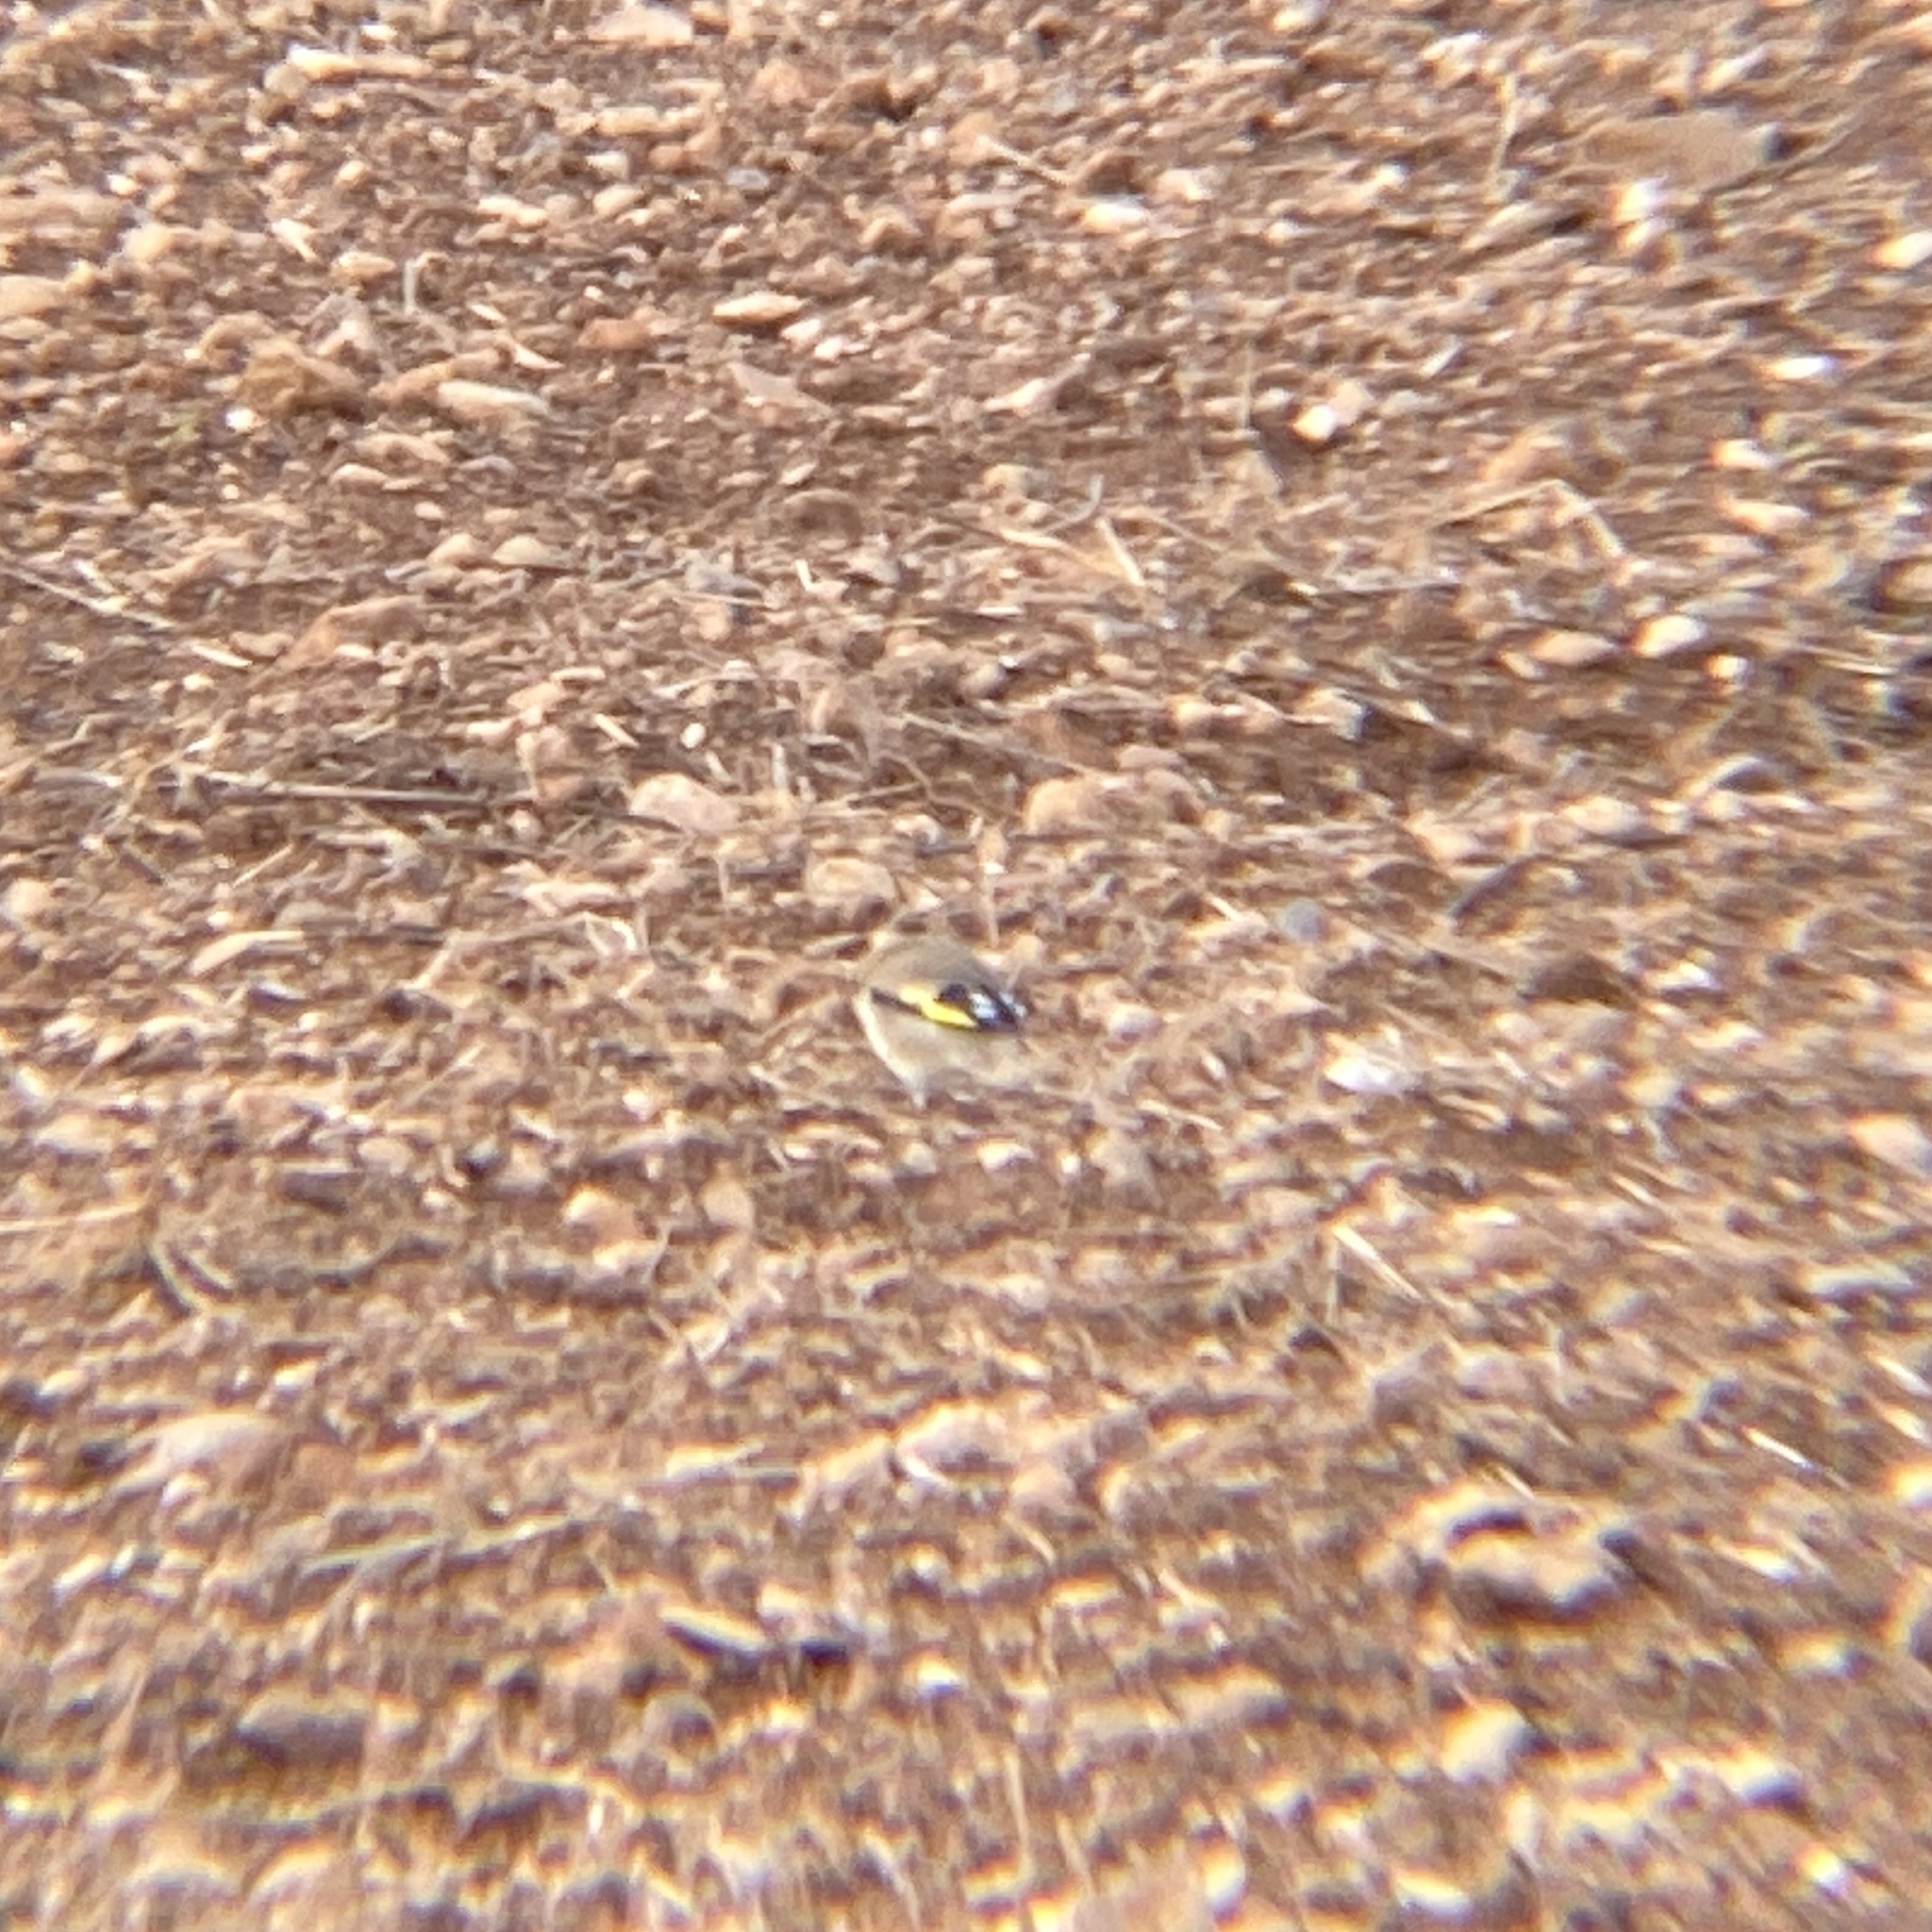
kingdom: Animalia
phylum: Chordata
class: Aves
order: Passeriformes
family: Fringillidae
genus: Carduelis
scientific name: Carduelis carduelis
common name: European goldfinch
